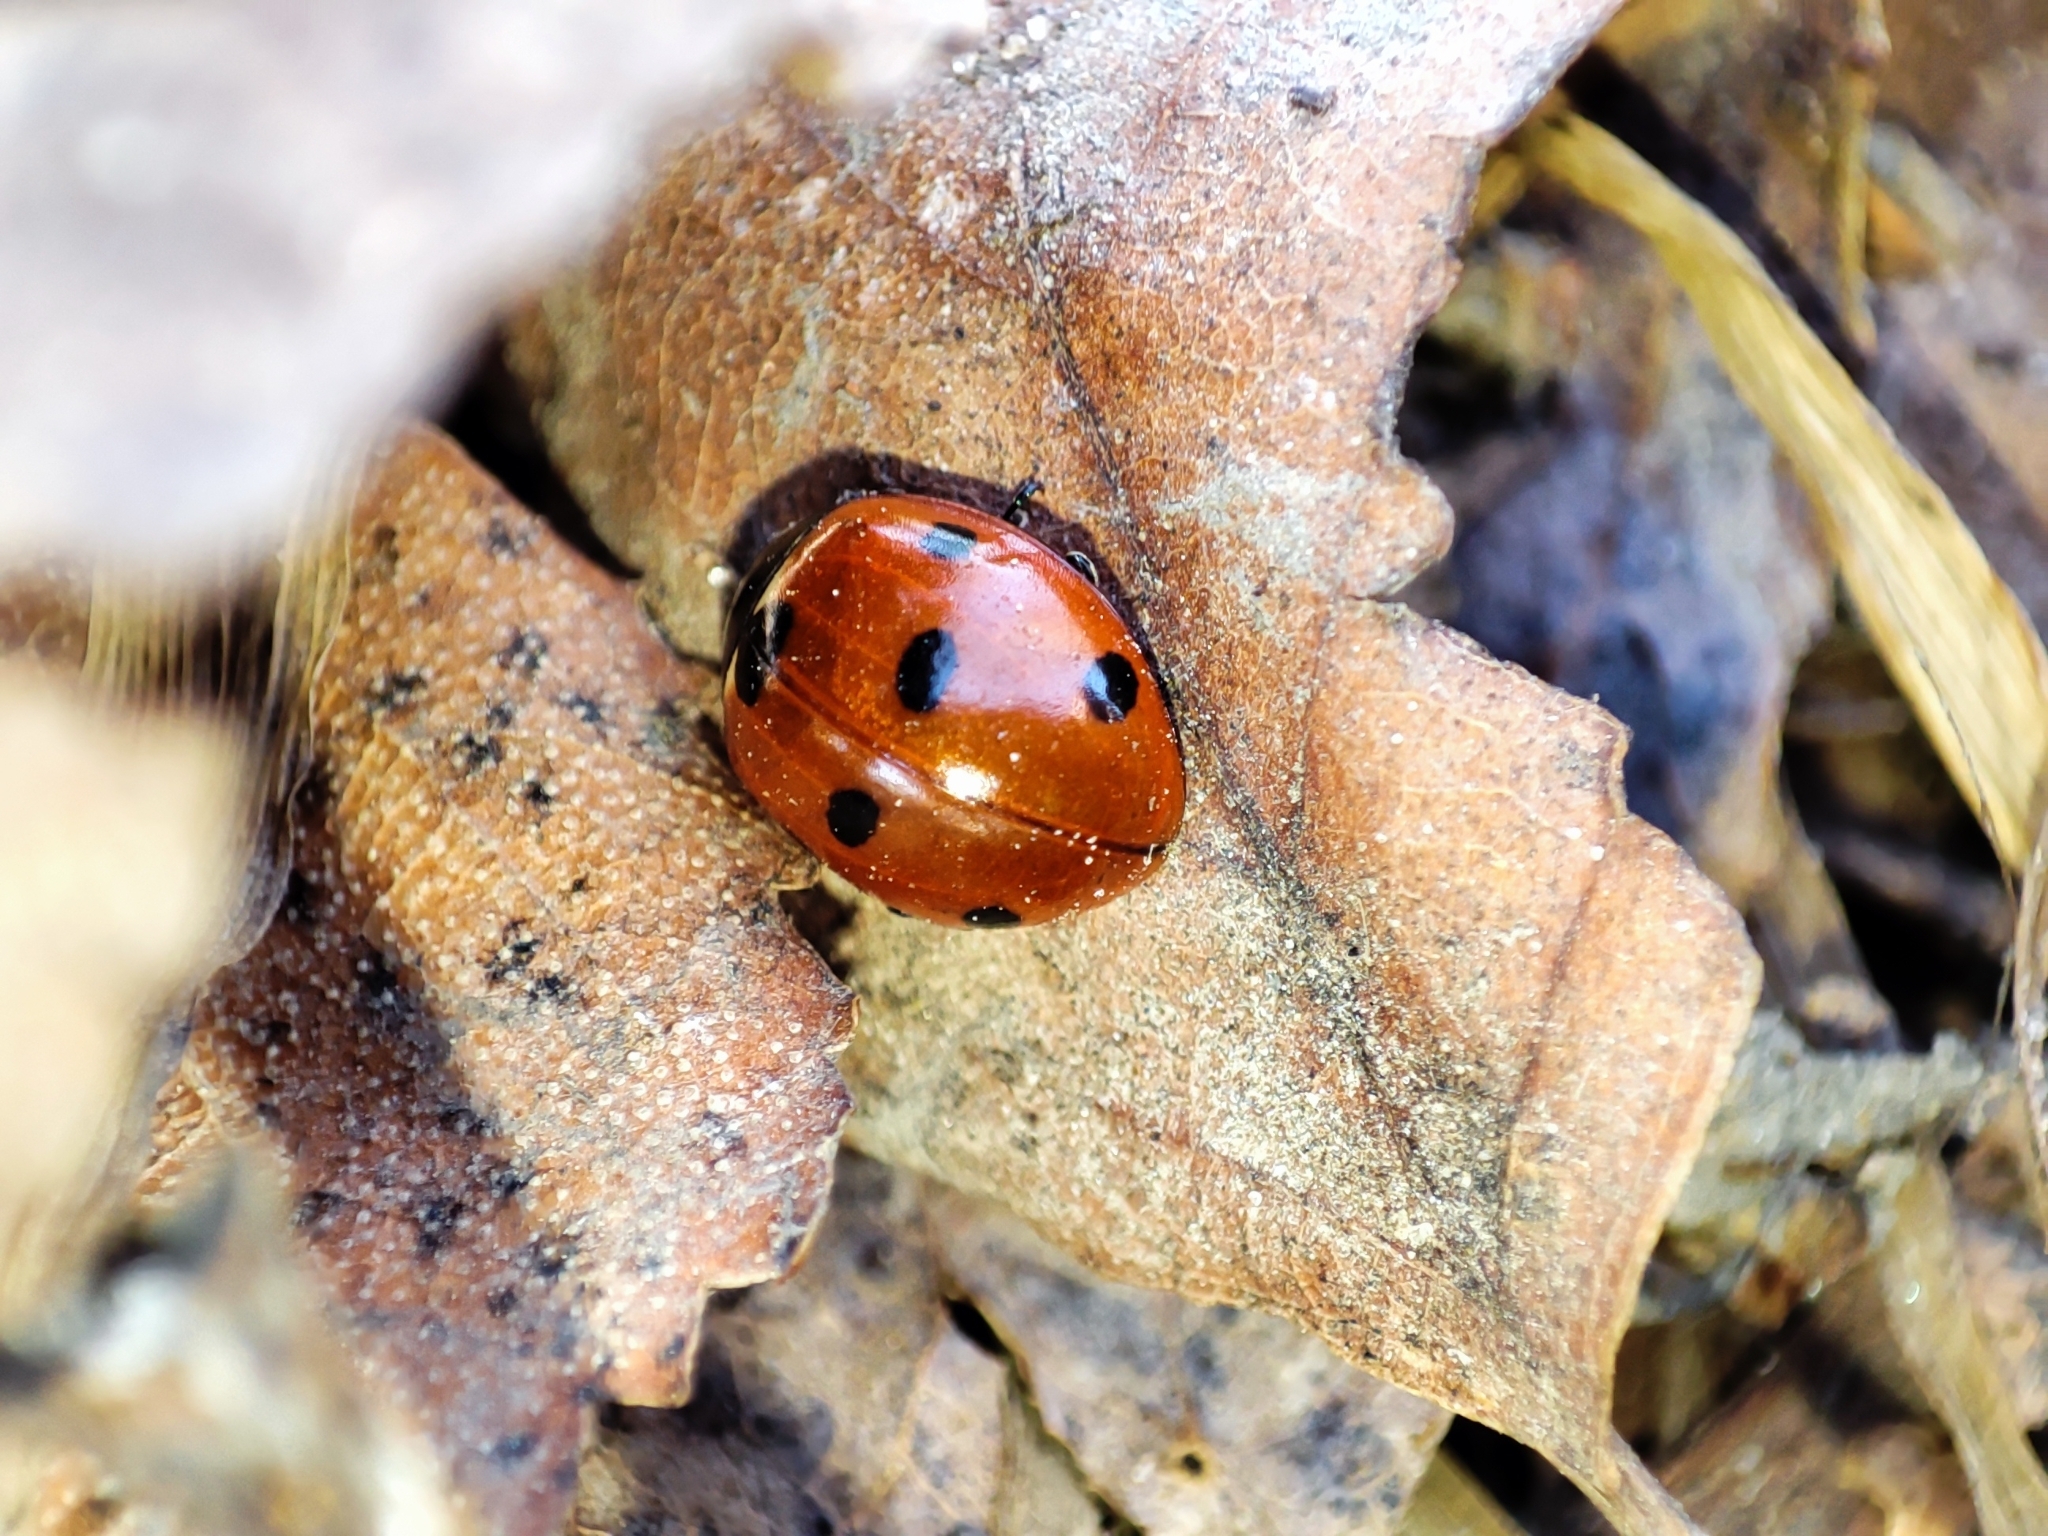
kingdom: Animalia
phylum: Arthropoda
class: Insecta
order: Coleoptera
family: Coccinellidae
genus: Coccinella
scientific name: Coccinella septempunctata
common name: Sevenspotted lady beetle
